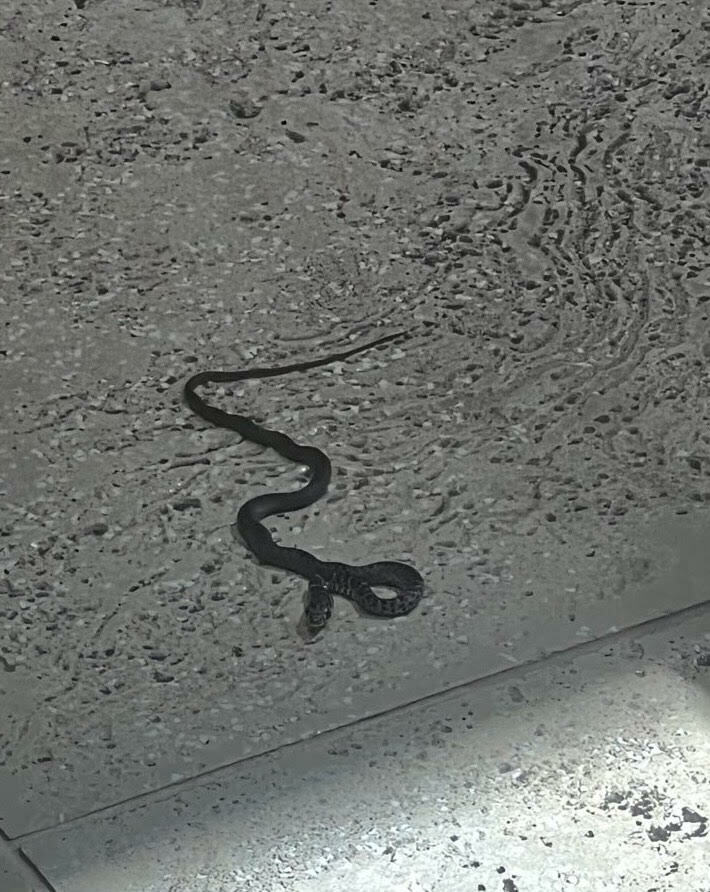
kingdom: Animalia
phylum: Chordata
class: Squamata
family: Colubridae
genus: Coluber
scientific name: Coluber constrictor
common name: Eastern racer
